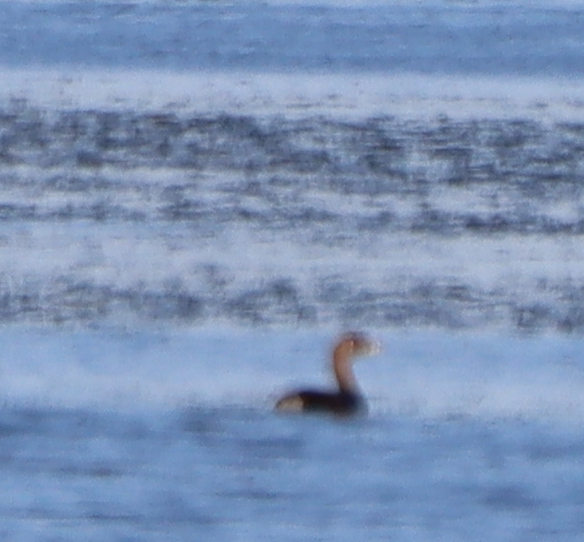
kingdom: Animalia
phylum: Chordata
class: Aves
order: Podicipediformes
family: Podicipedidae
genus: Podilymbus
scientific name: Podilymbus podiceps
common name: Pied-billed grebe
